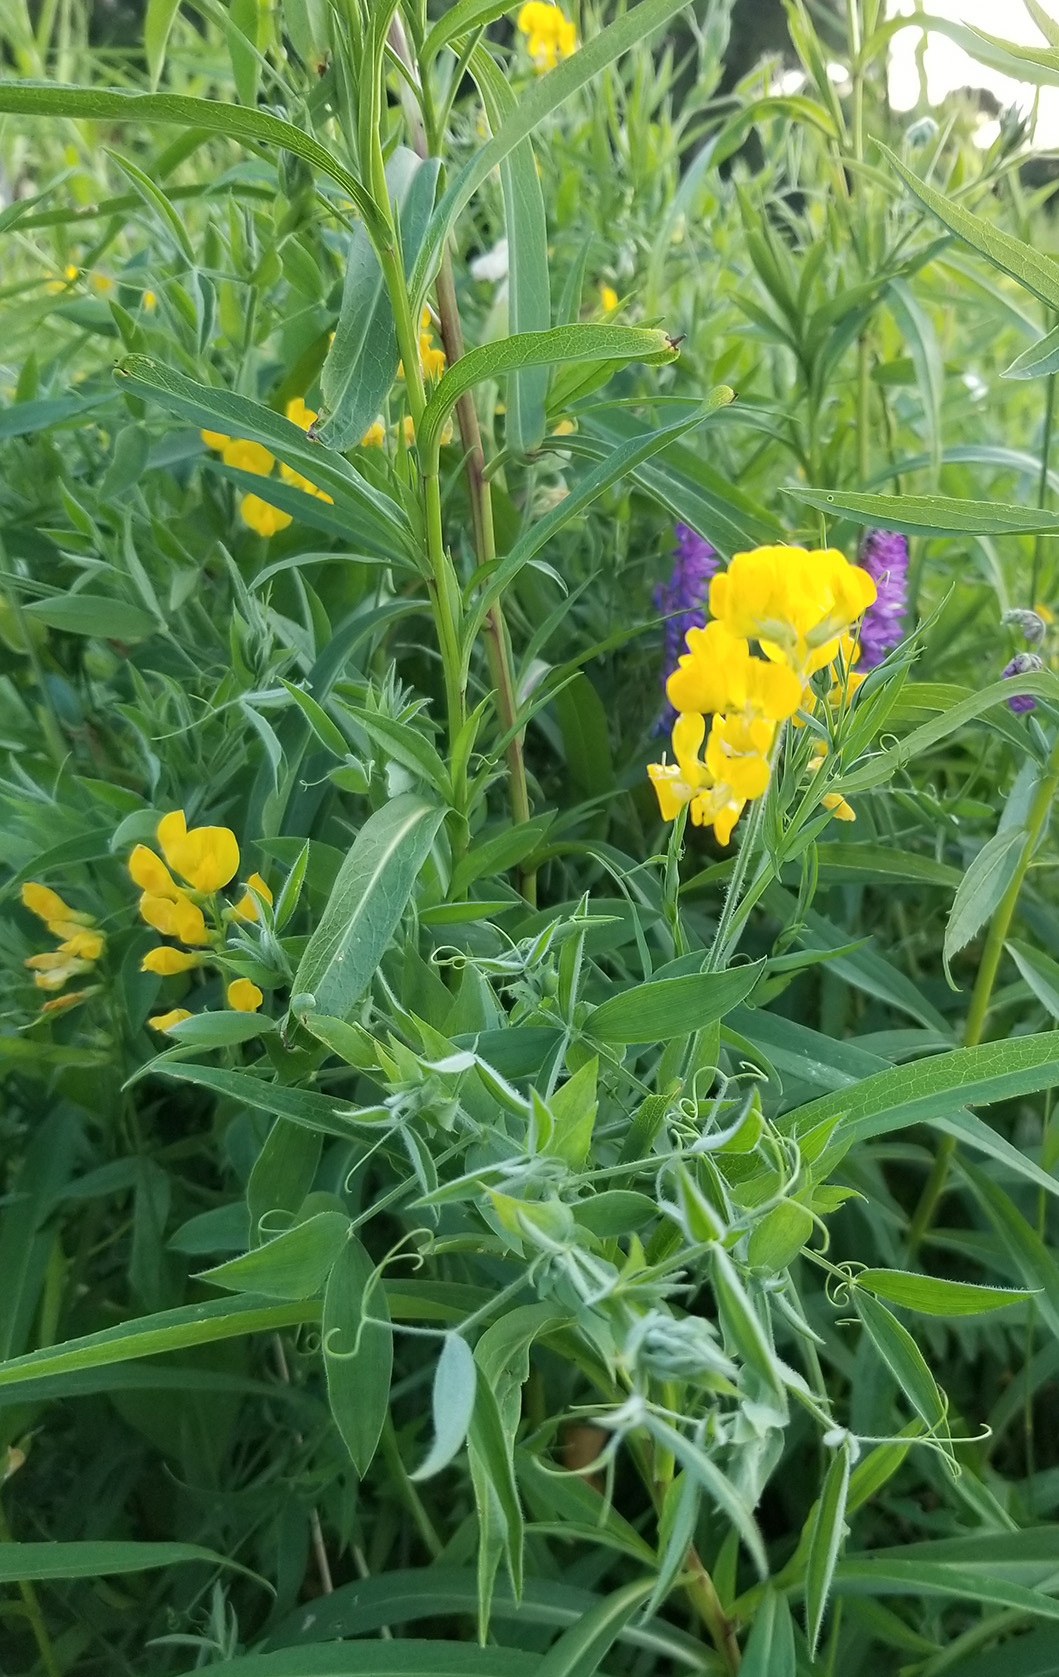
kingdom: Plantae
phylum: Tracheophyta
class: Magnoliopsida
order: Fabales
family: Fabaceae
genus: Lathyrus
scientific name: Lathyrus pratensis
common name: Meadow vetchling
